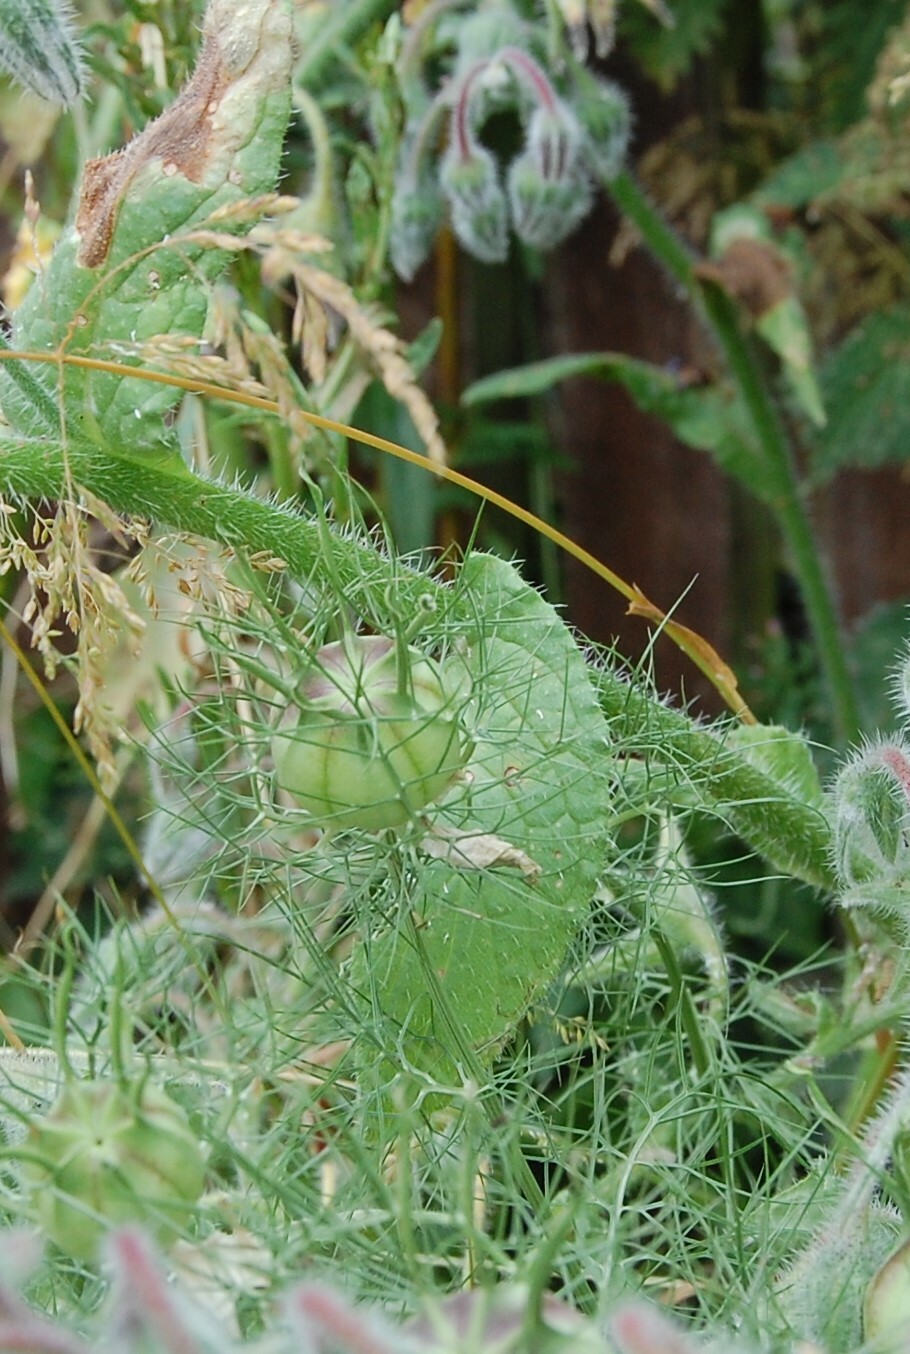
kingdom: Plantae
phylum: Tracheophyta
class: Magnoliopsida
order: Ranunculales
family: Ranunculaceae
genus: Nigella
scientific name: Nigella damascena
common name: Love-in-a-mist
